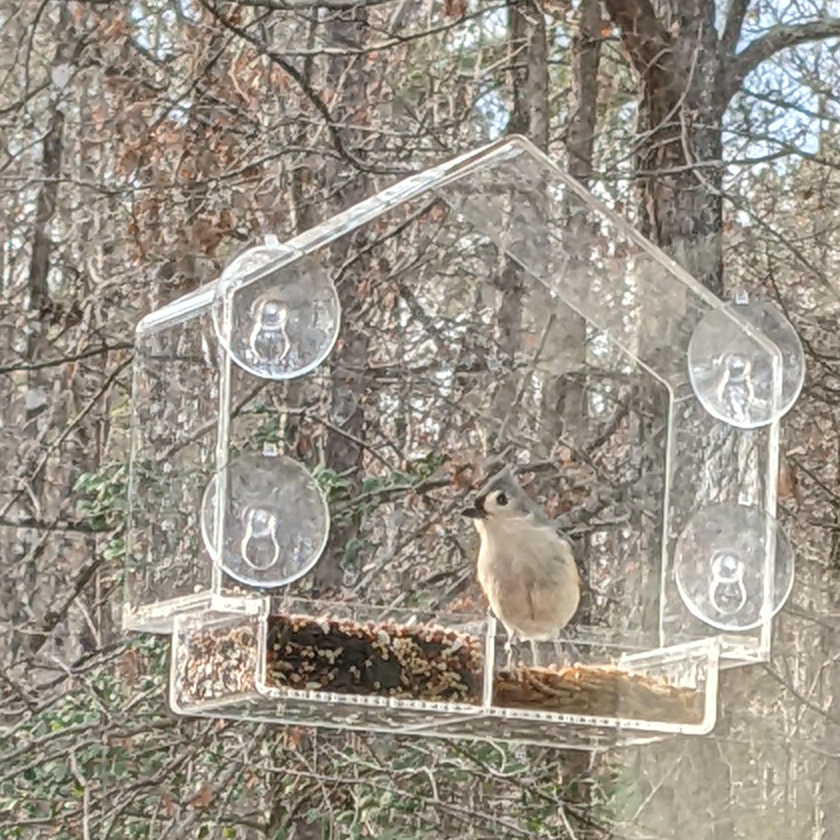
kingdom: Animalia
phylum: Chordata
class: Aves
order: Passeriformes
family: Paridae
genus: Baeolophus
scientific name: Baeolophus bicolor
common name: Tufted titmouse
